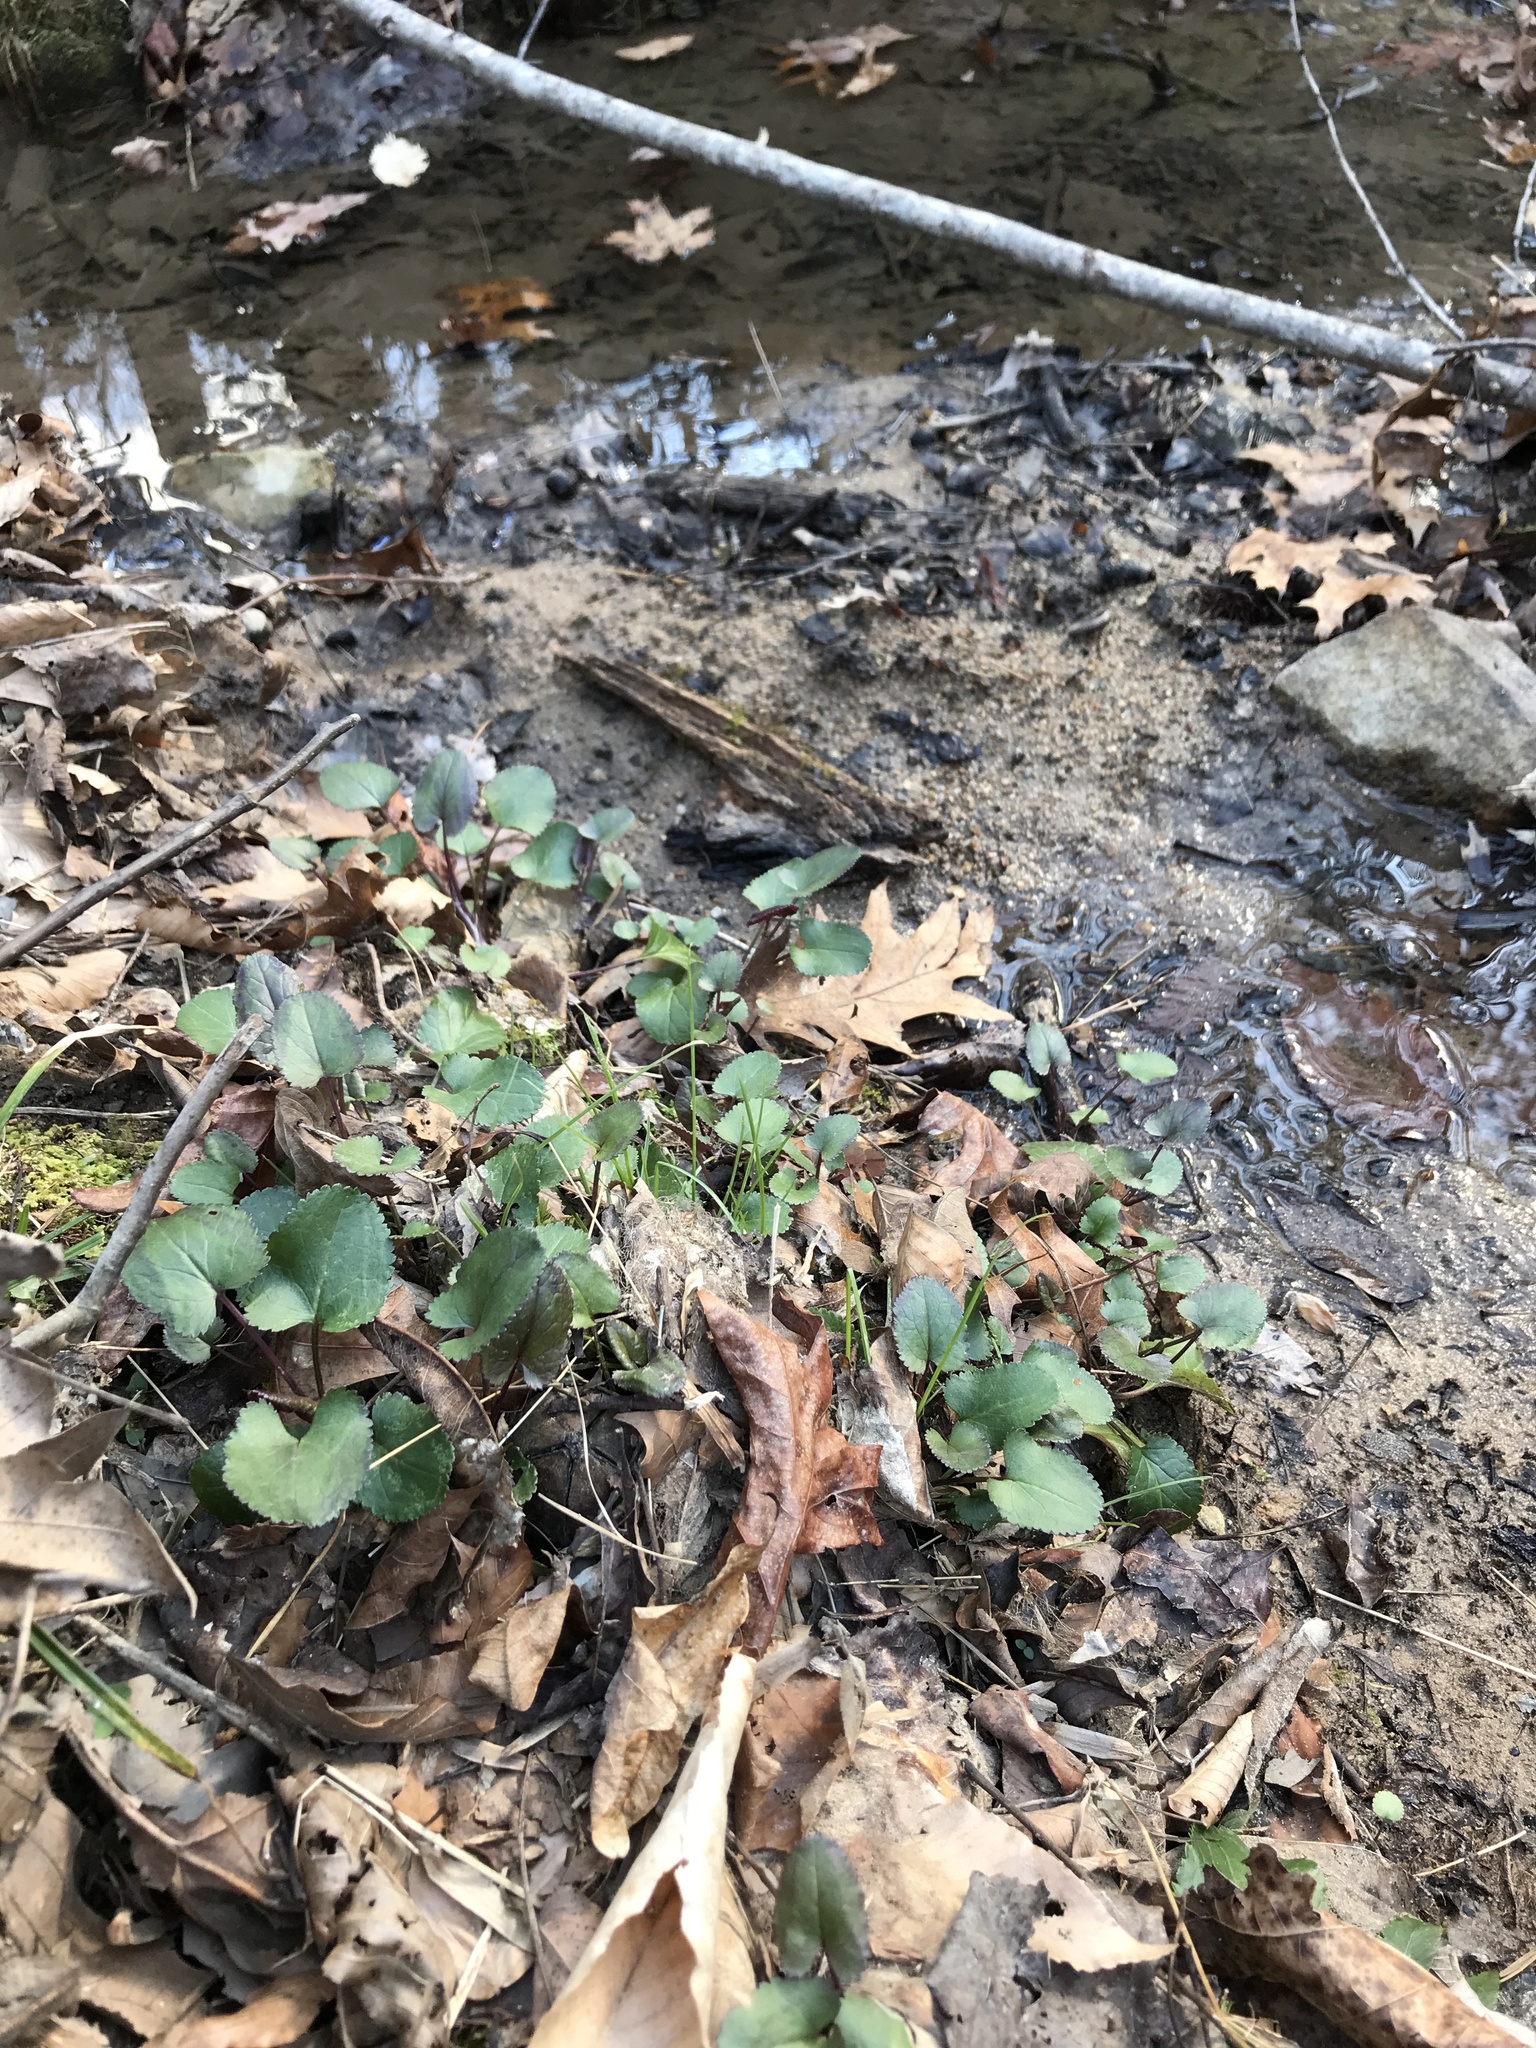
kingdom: Plantae
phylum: Tracheophyta
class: Magnoliopsida
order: Asterales
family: Asteraceae
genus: Packera
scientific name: Packera aurea
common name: Golden groundsel
